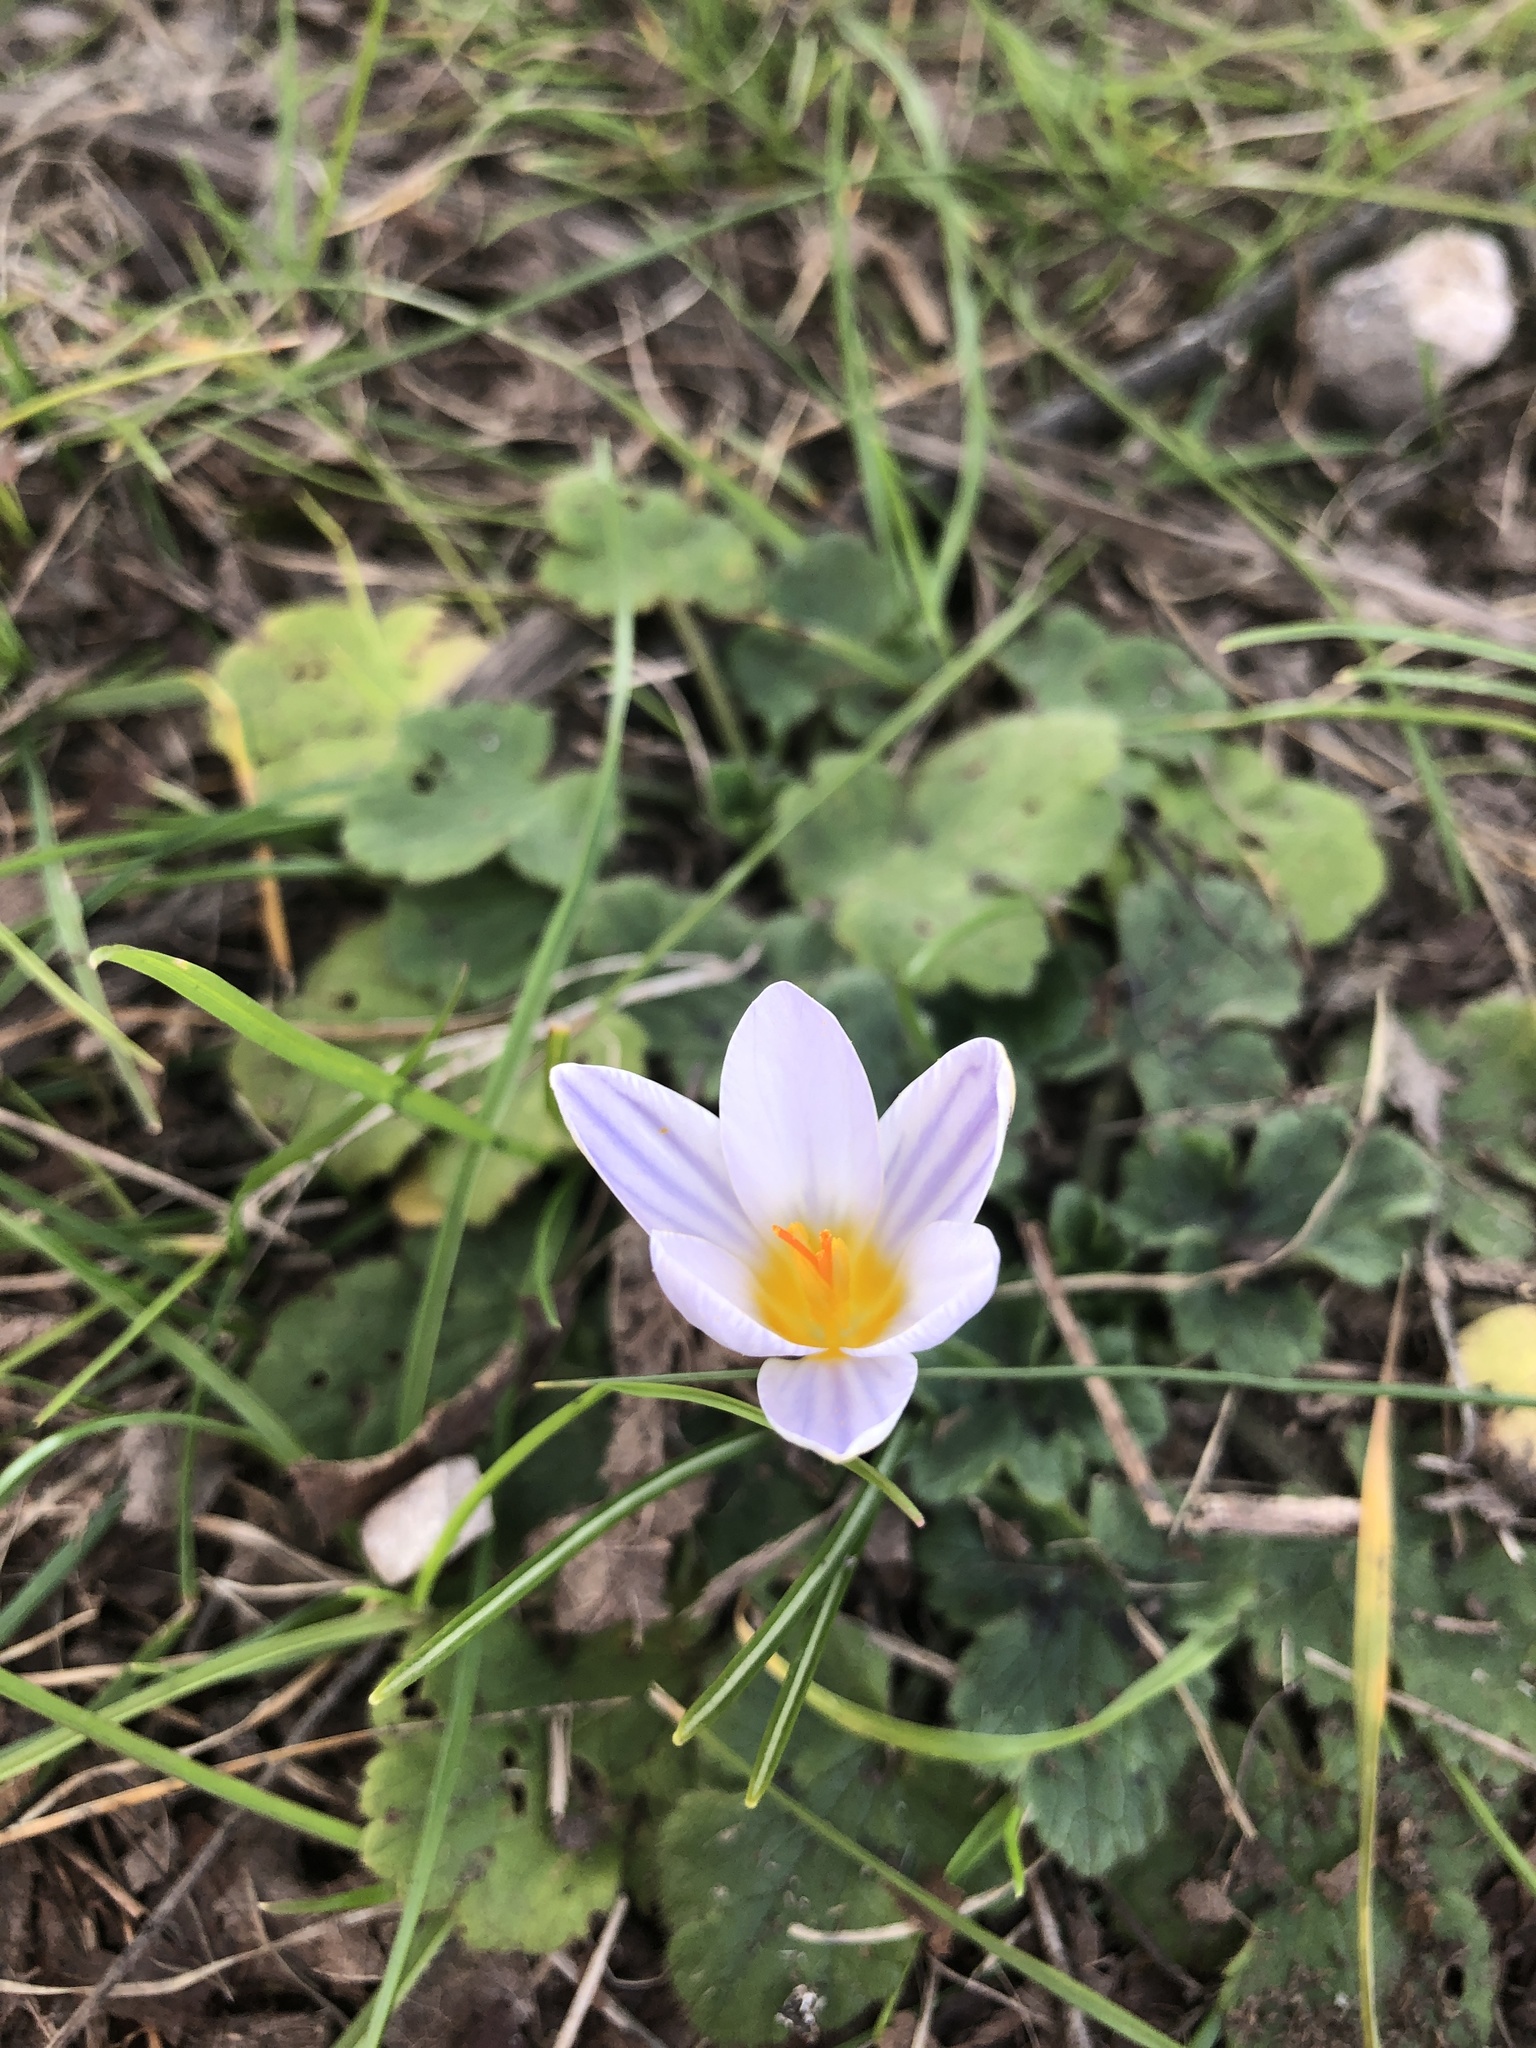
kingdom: Plantae
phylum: Tracheophyta
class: Liliopsida
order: Asparagales
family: Iridaceae
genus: Crocus
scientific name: Crocus biflorus
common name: Silvery crocus
